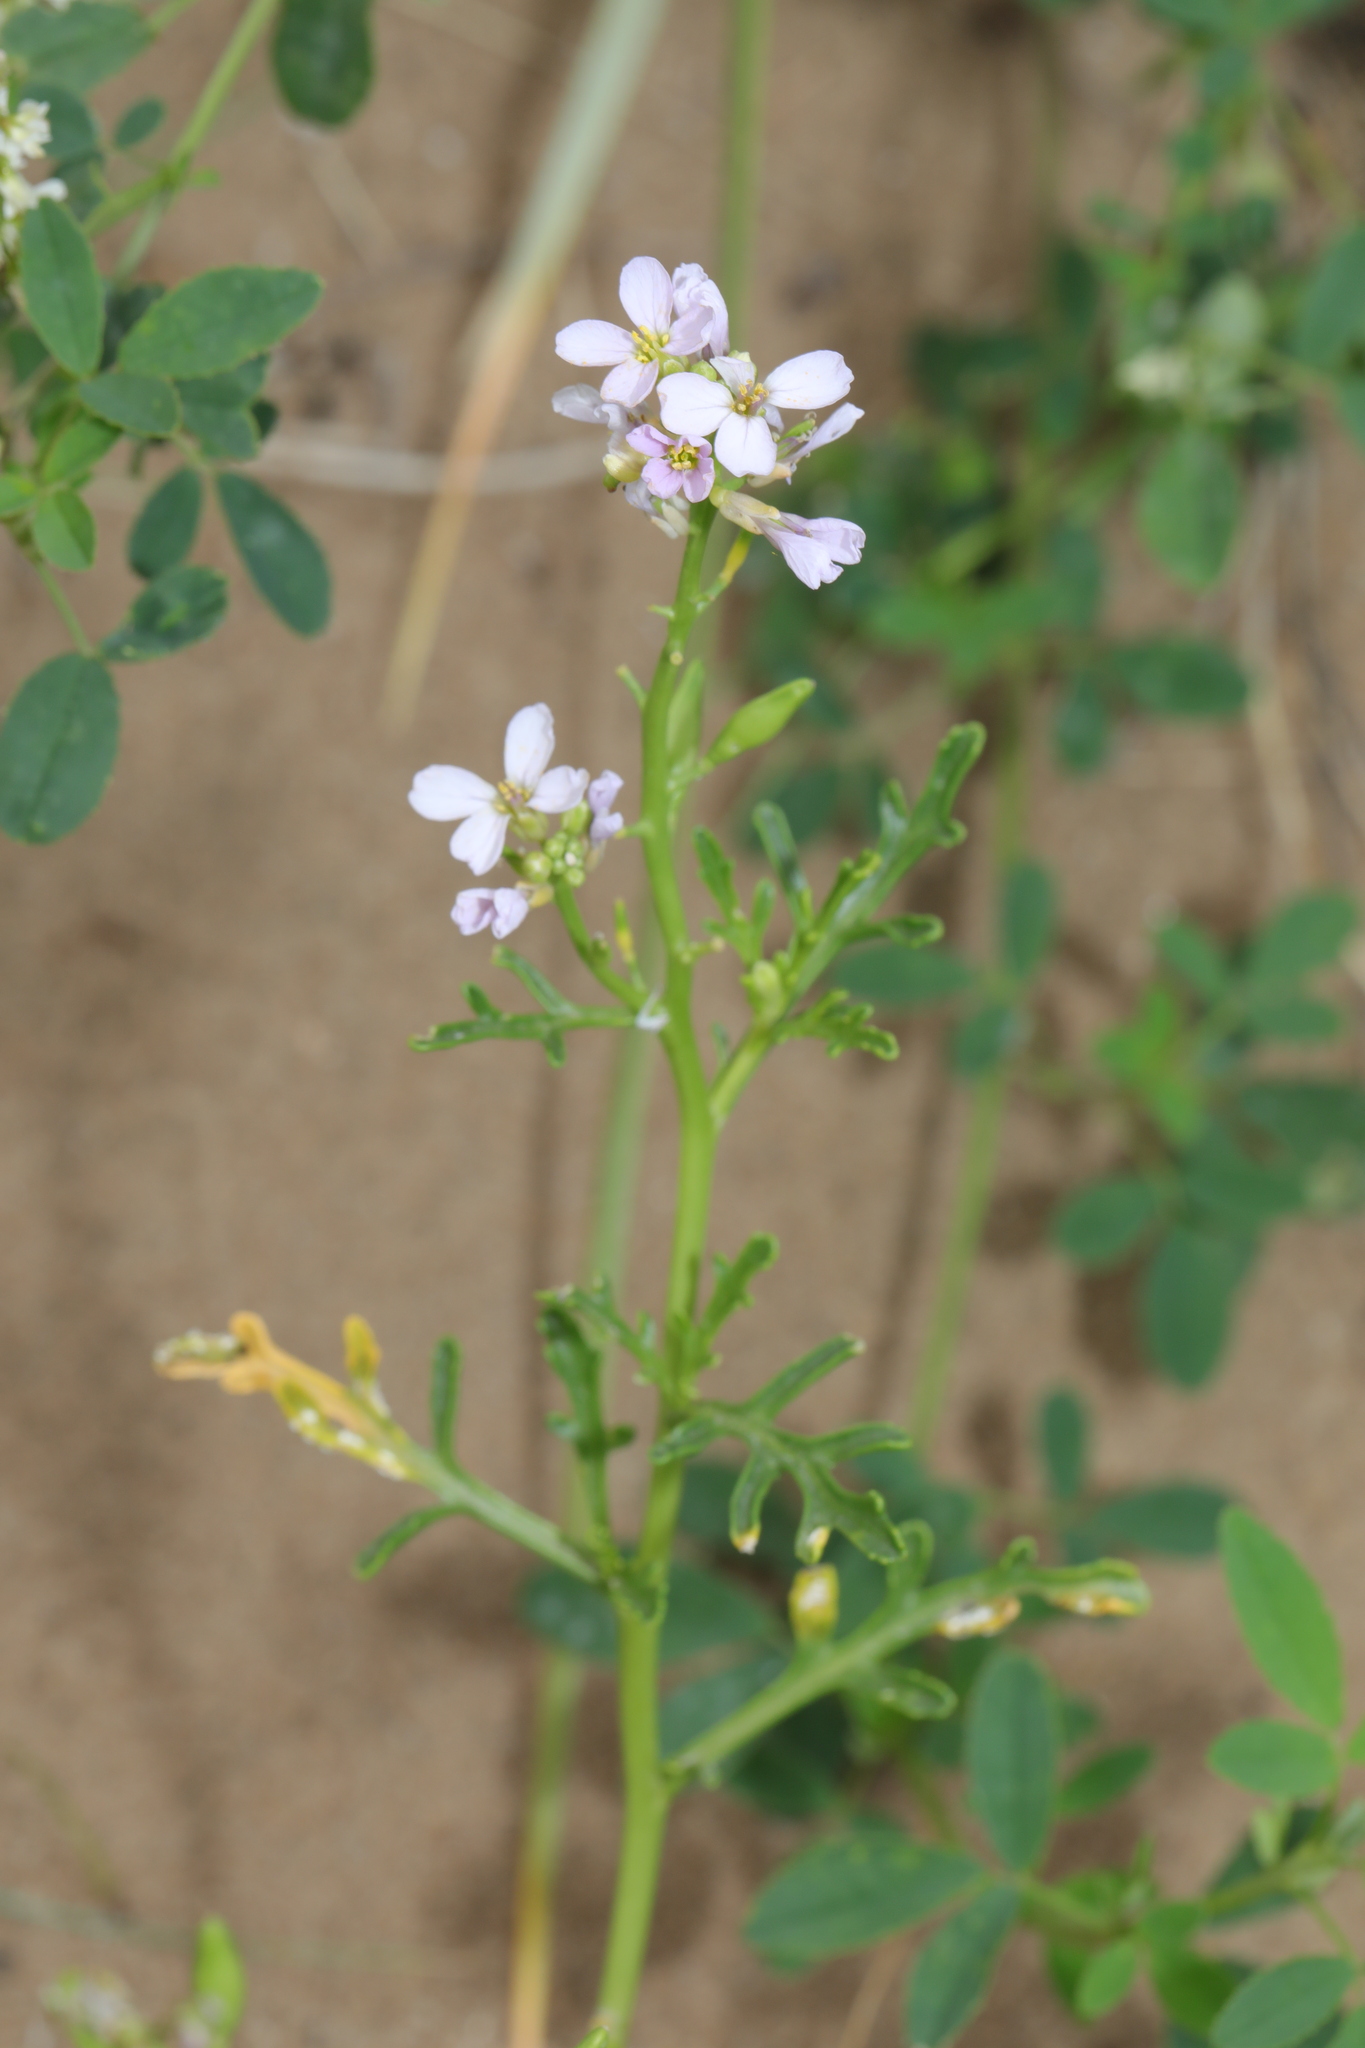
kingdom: Plantae
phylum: Tracheophyta
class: Magnoliopsida
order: Brassicales
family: Brassicaceae
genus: Cakile
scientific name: Cakile maritima
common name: Sea rocket
